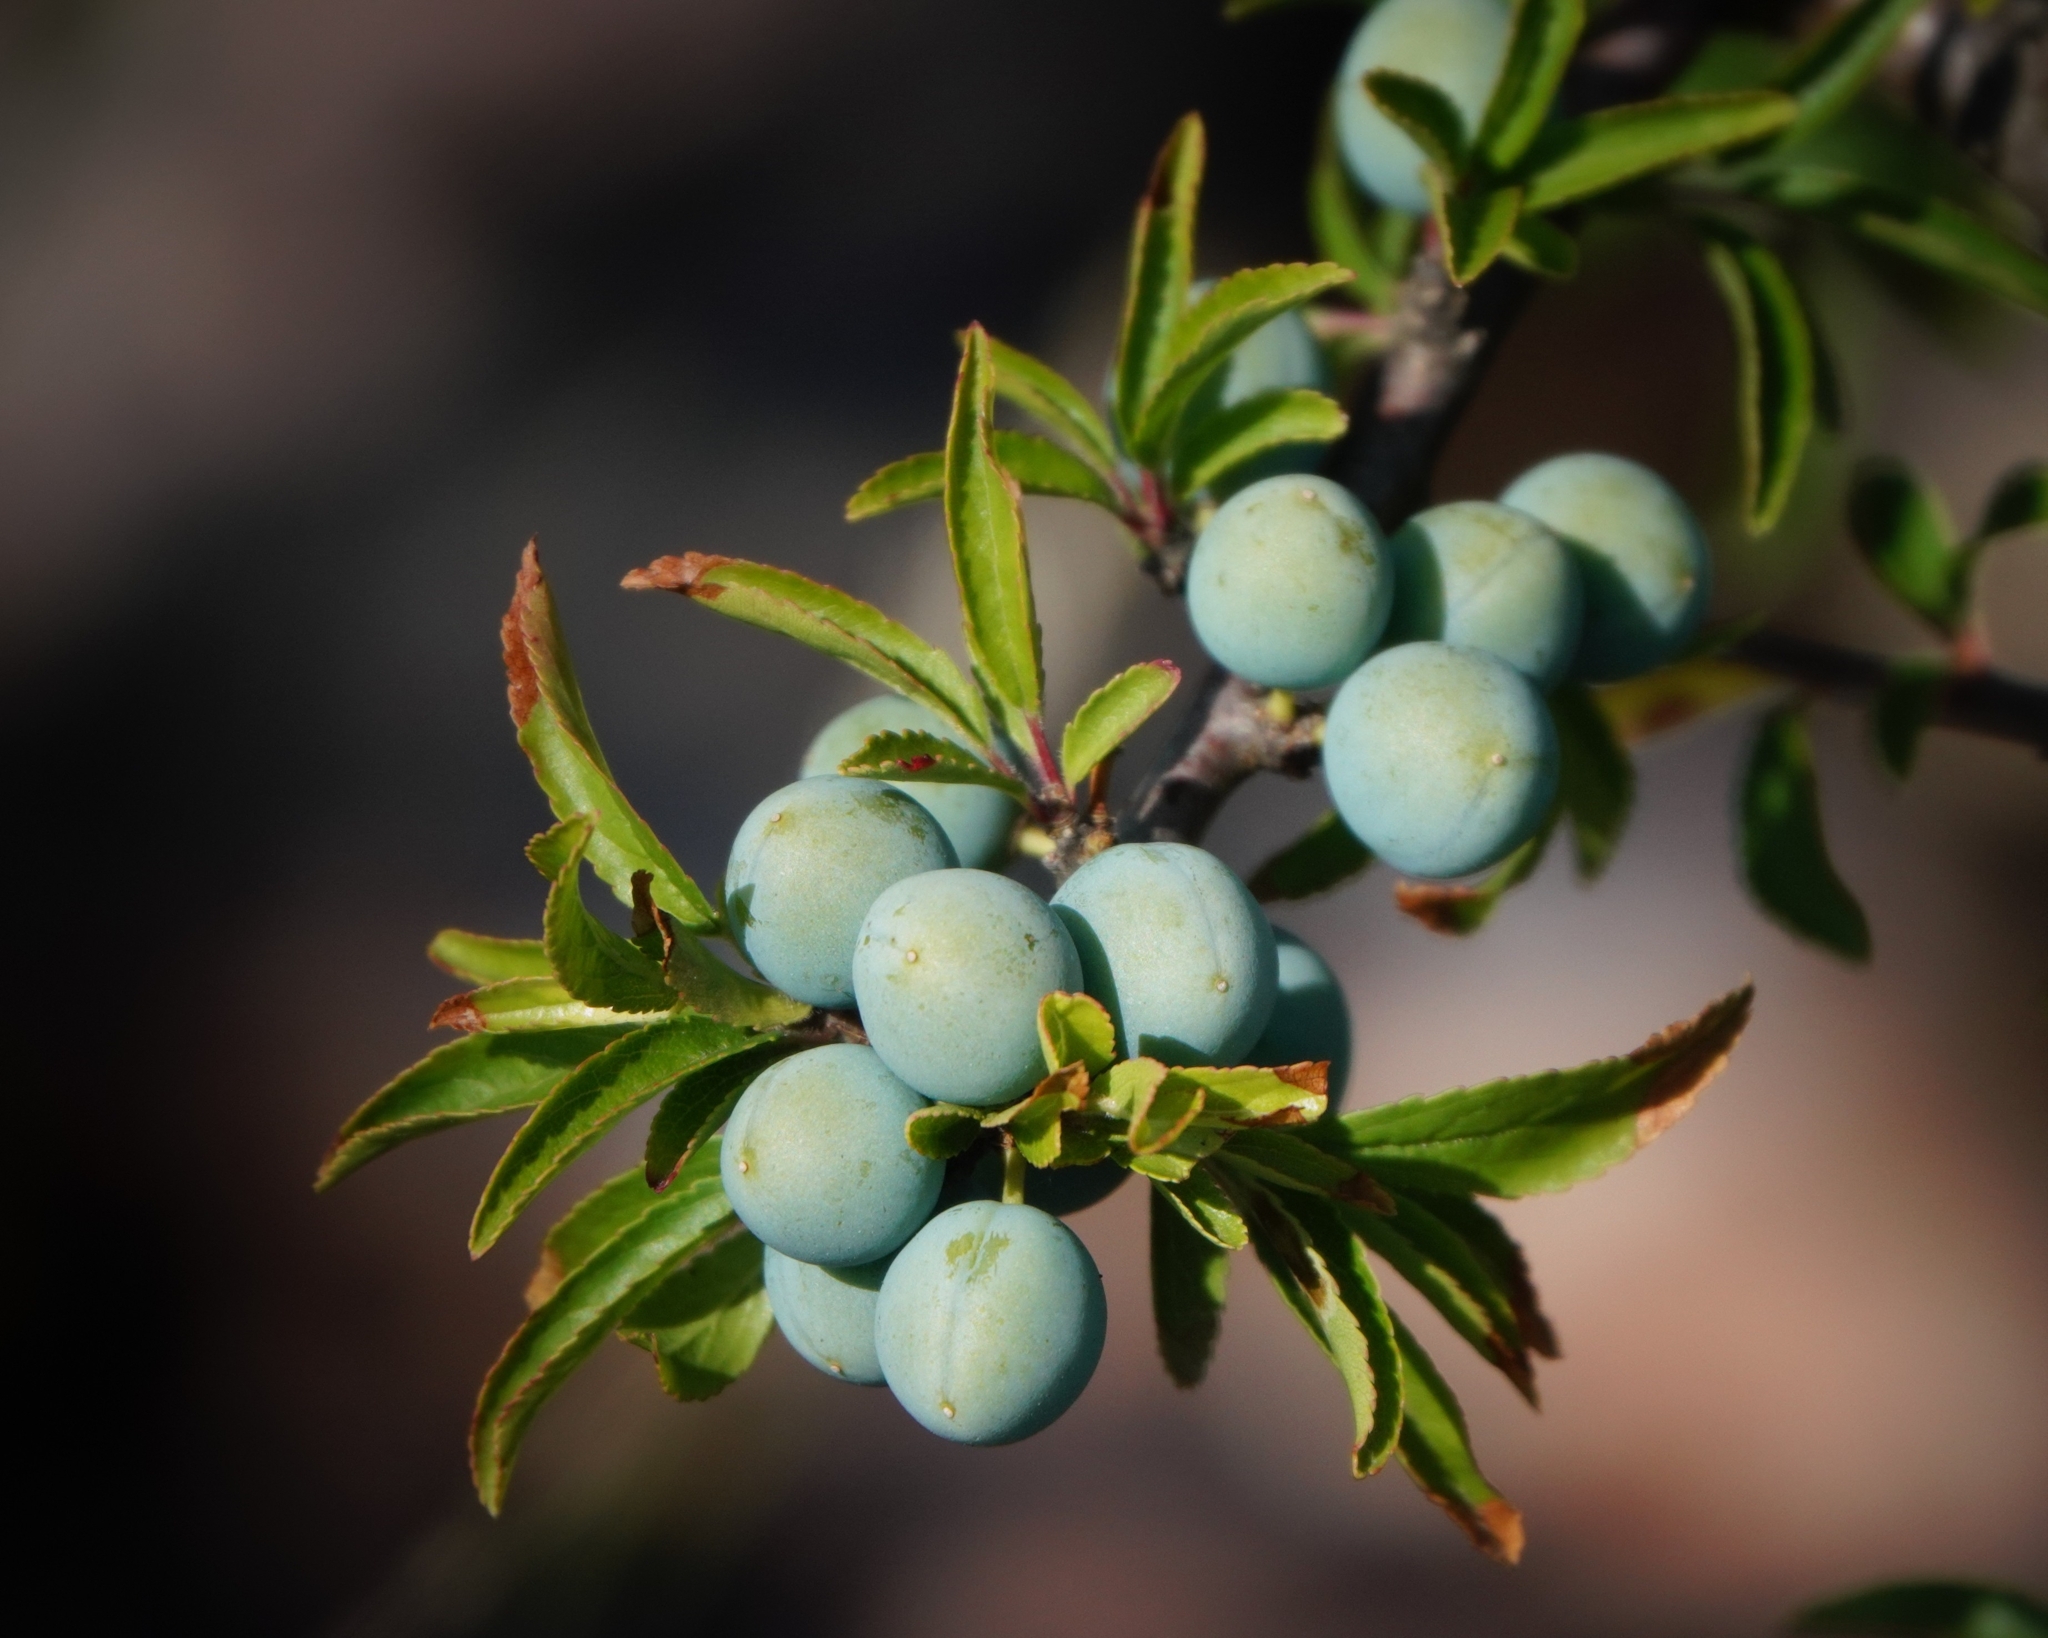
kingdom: Plantae
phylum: Tracheophyta
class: Magnoliopsida
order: Rosales
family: Rosaceae
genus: Prunus
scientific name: Prunus spinosa
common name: Blackthorn
